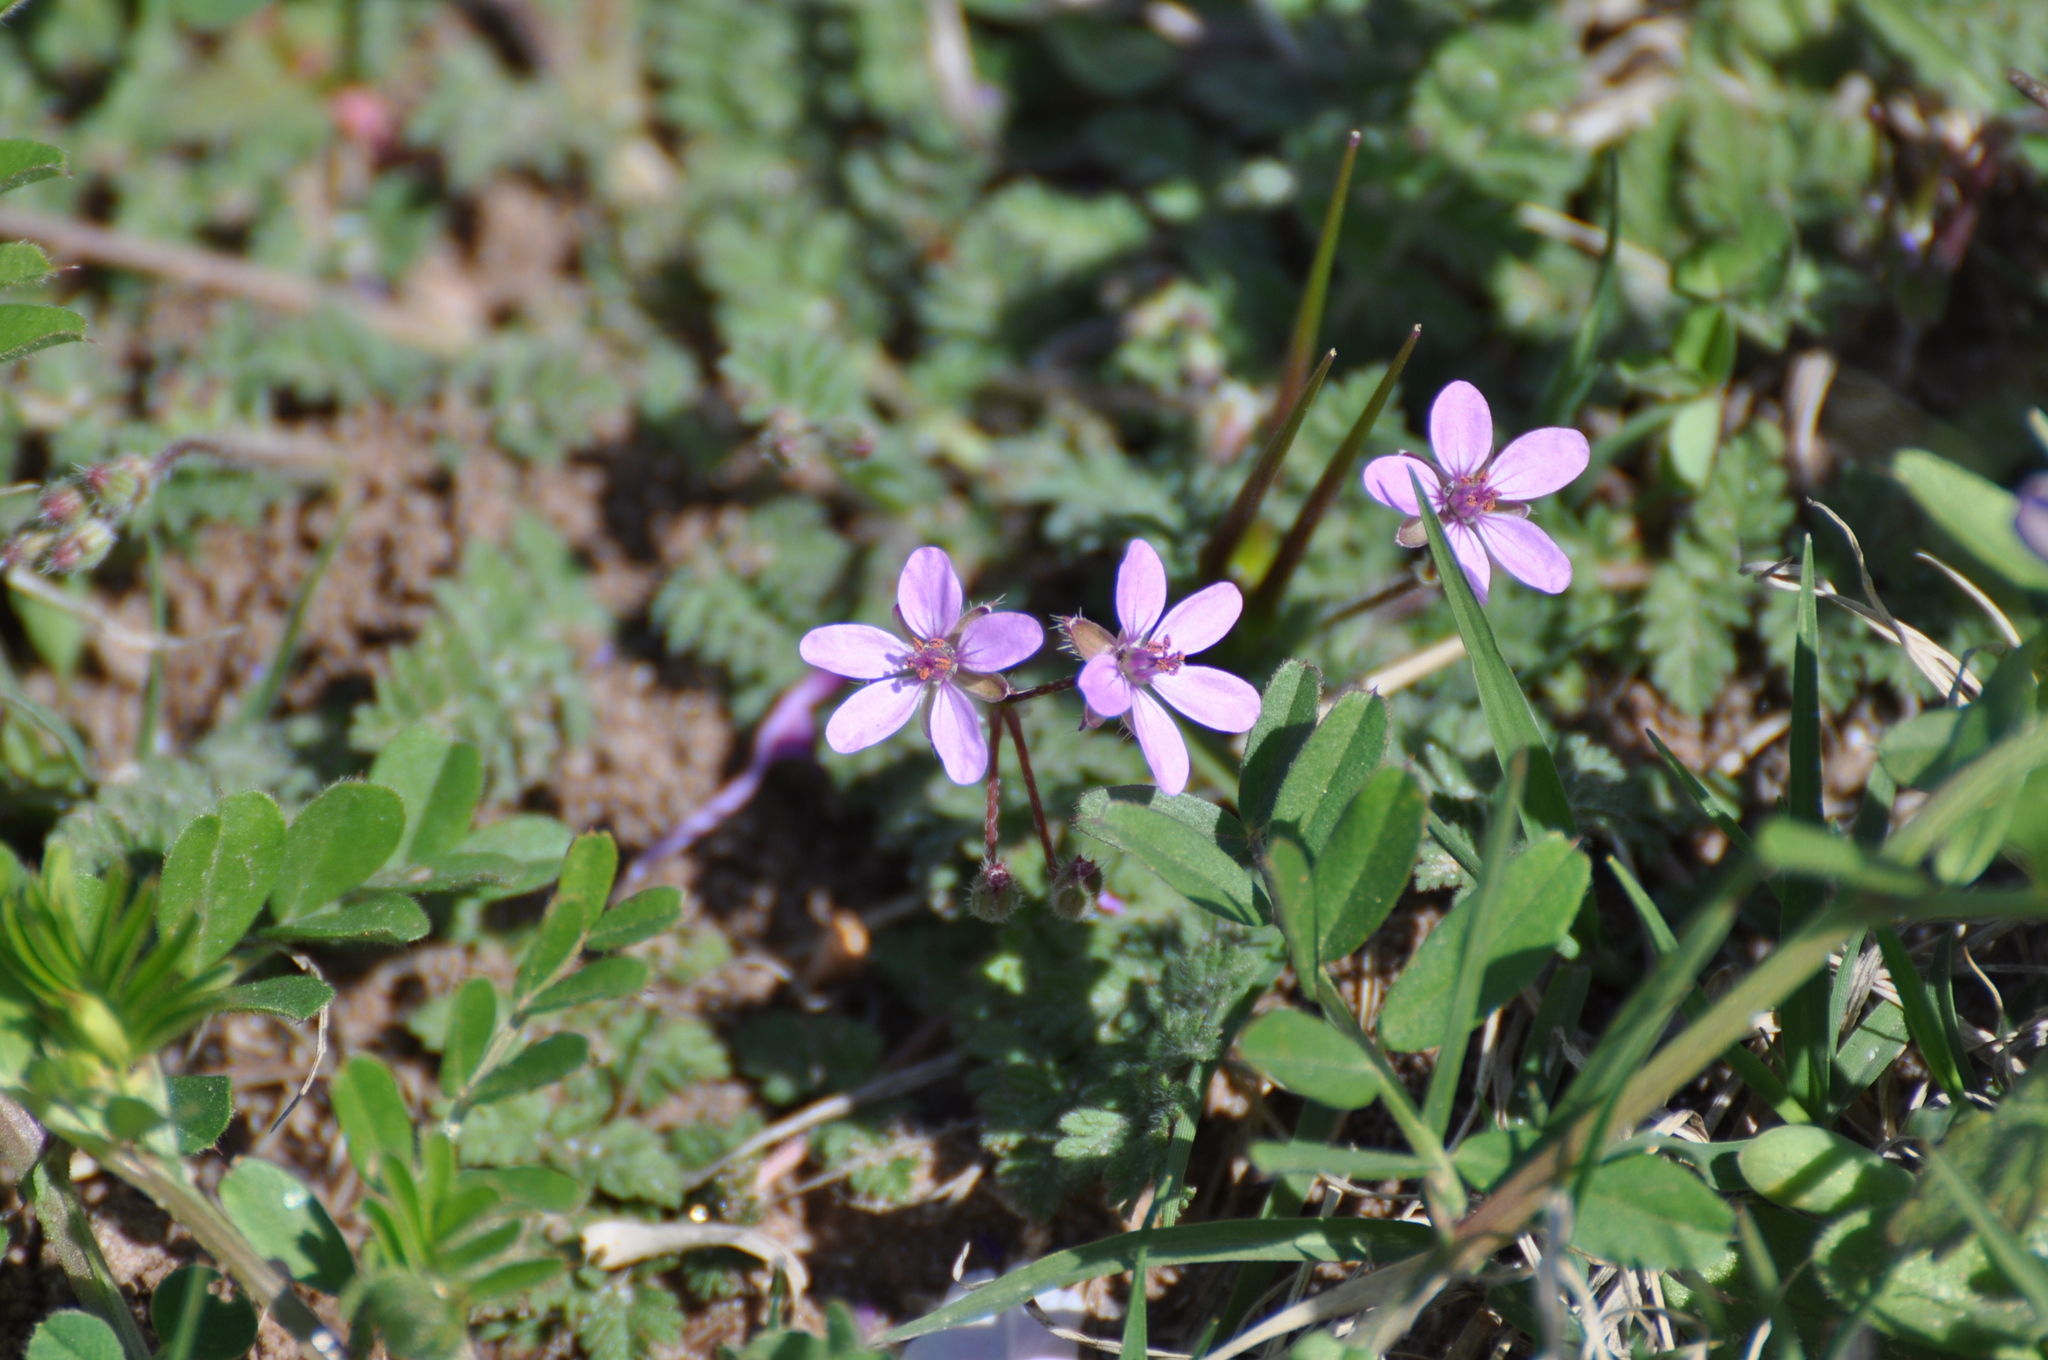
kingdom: Plantae
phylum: Tracheophyta
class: Magnoliopsida
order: Geraniales
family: Geraniaceae
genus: Erodium
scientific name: Erodium cicutarium
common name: Common stork's-bill
